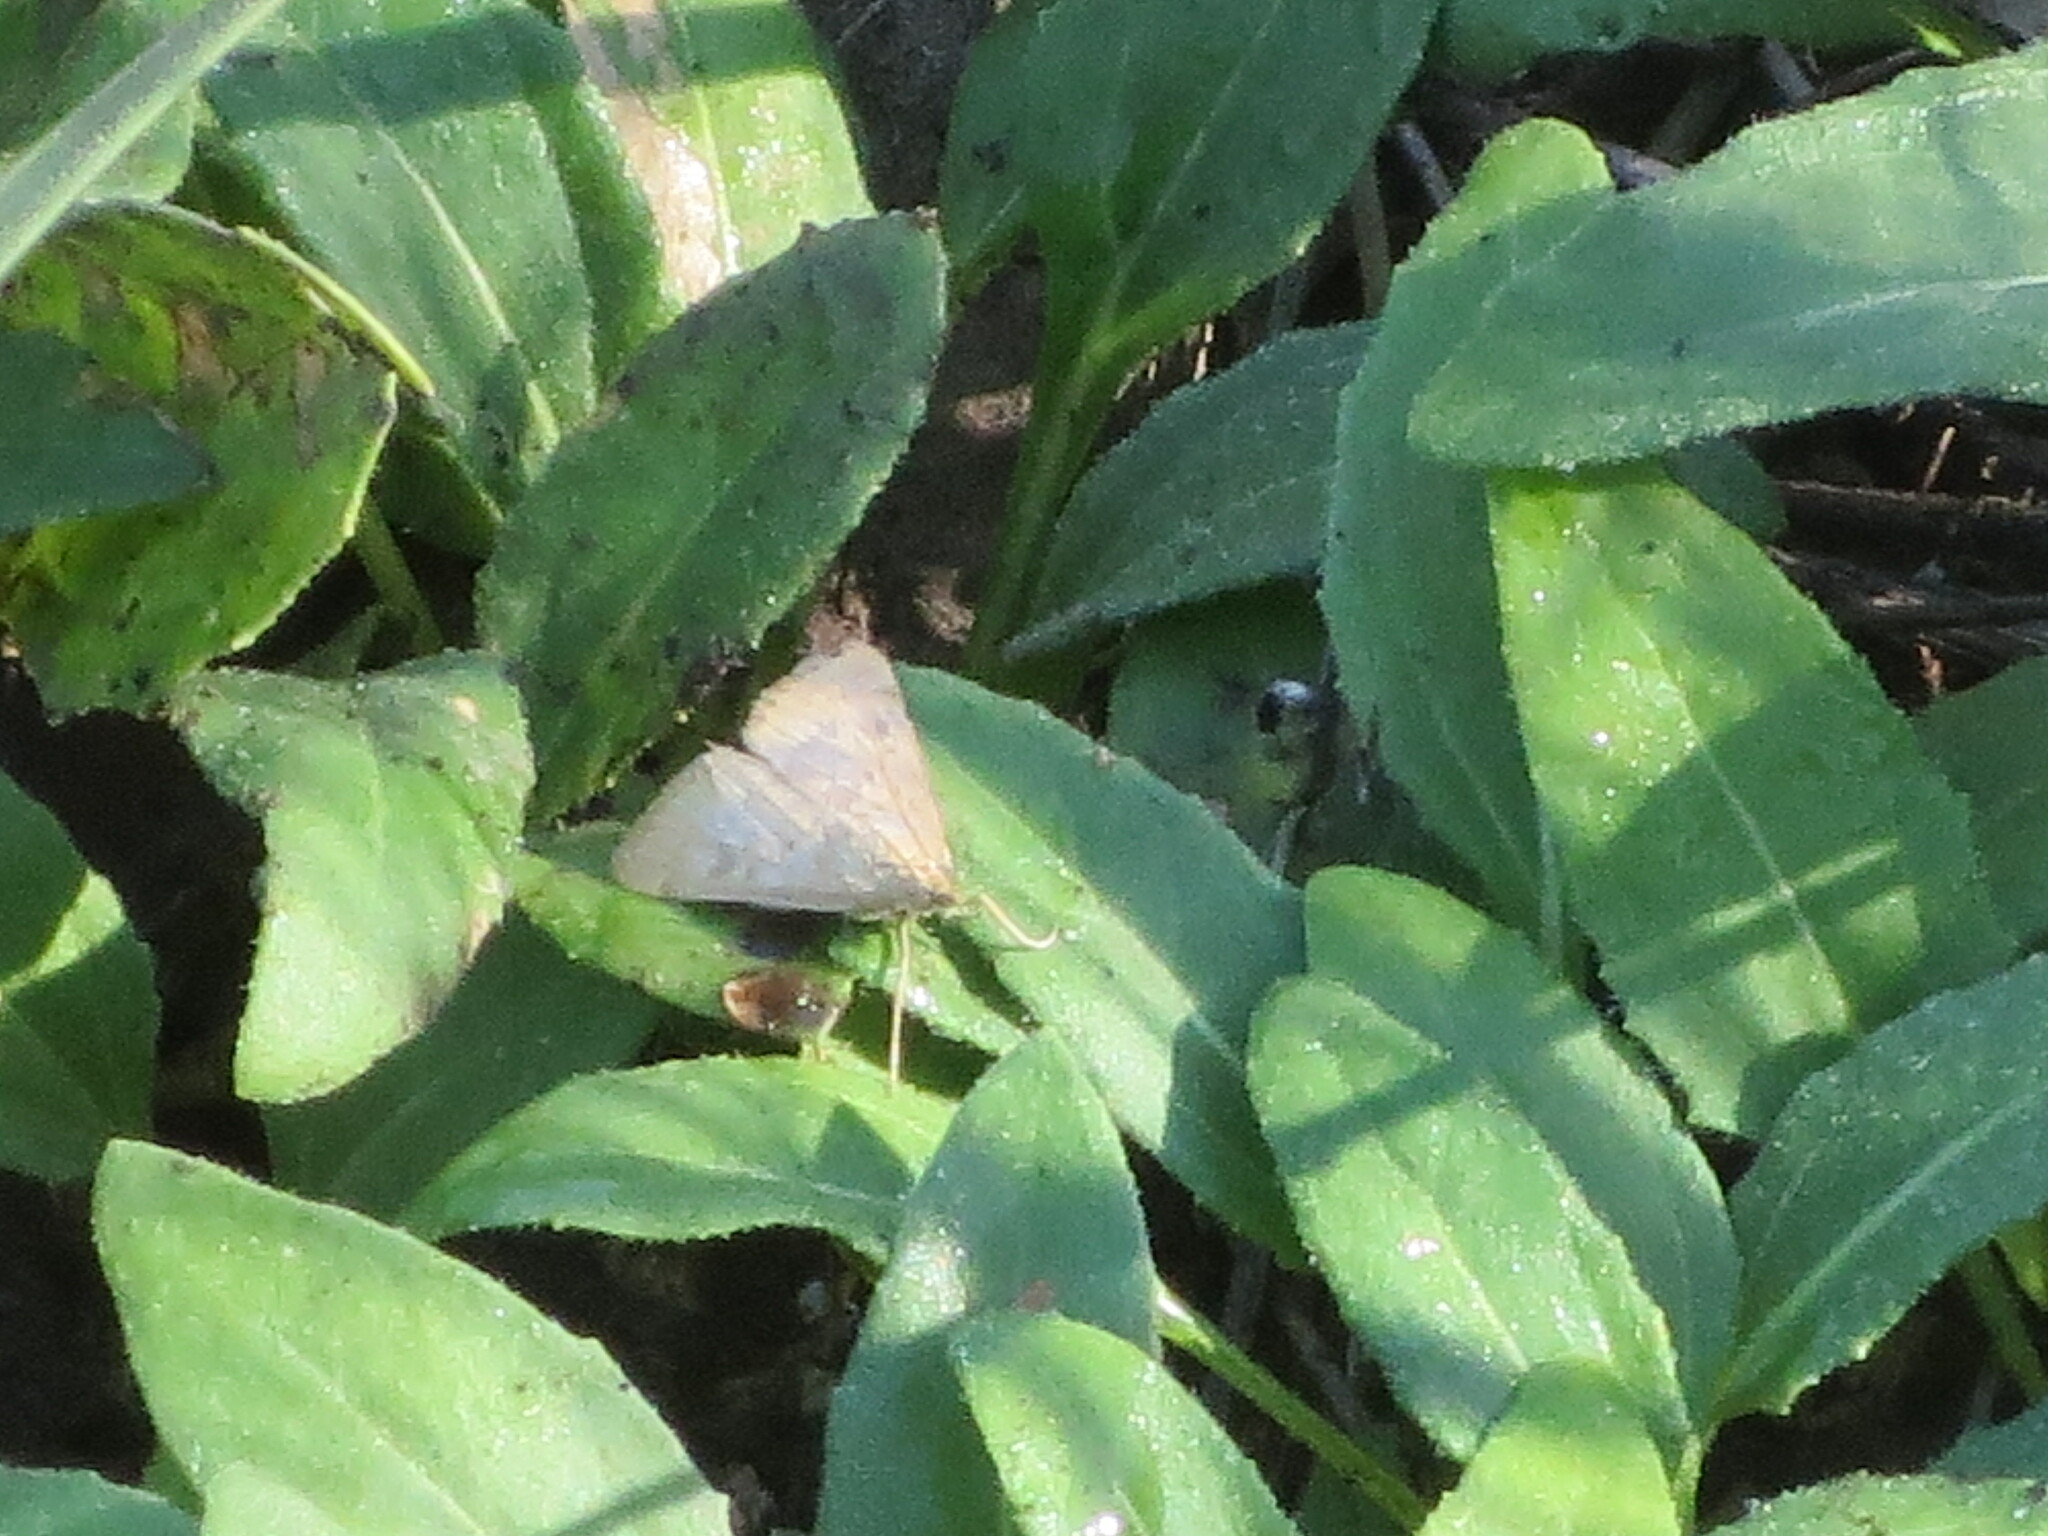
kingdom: Animalia
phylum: Arthropoda
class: Insecta
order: Lepidoptera
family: Crambidae
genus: Achyra
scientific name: Achyra rantalis
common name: Garden webworm
